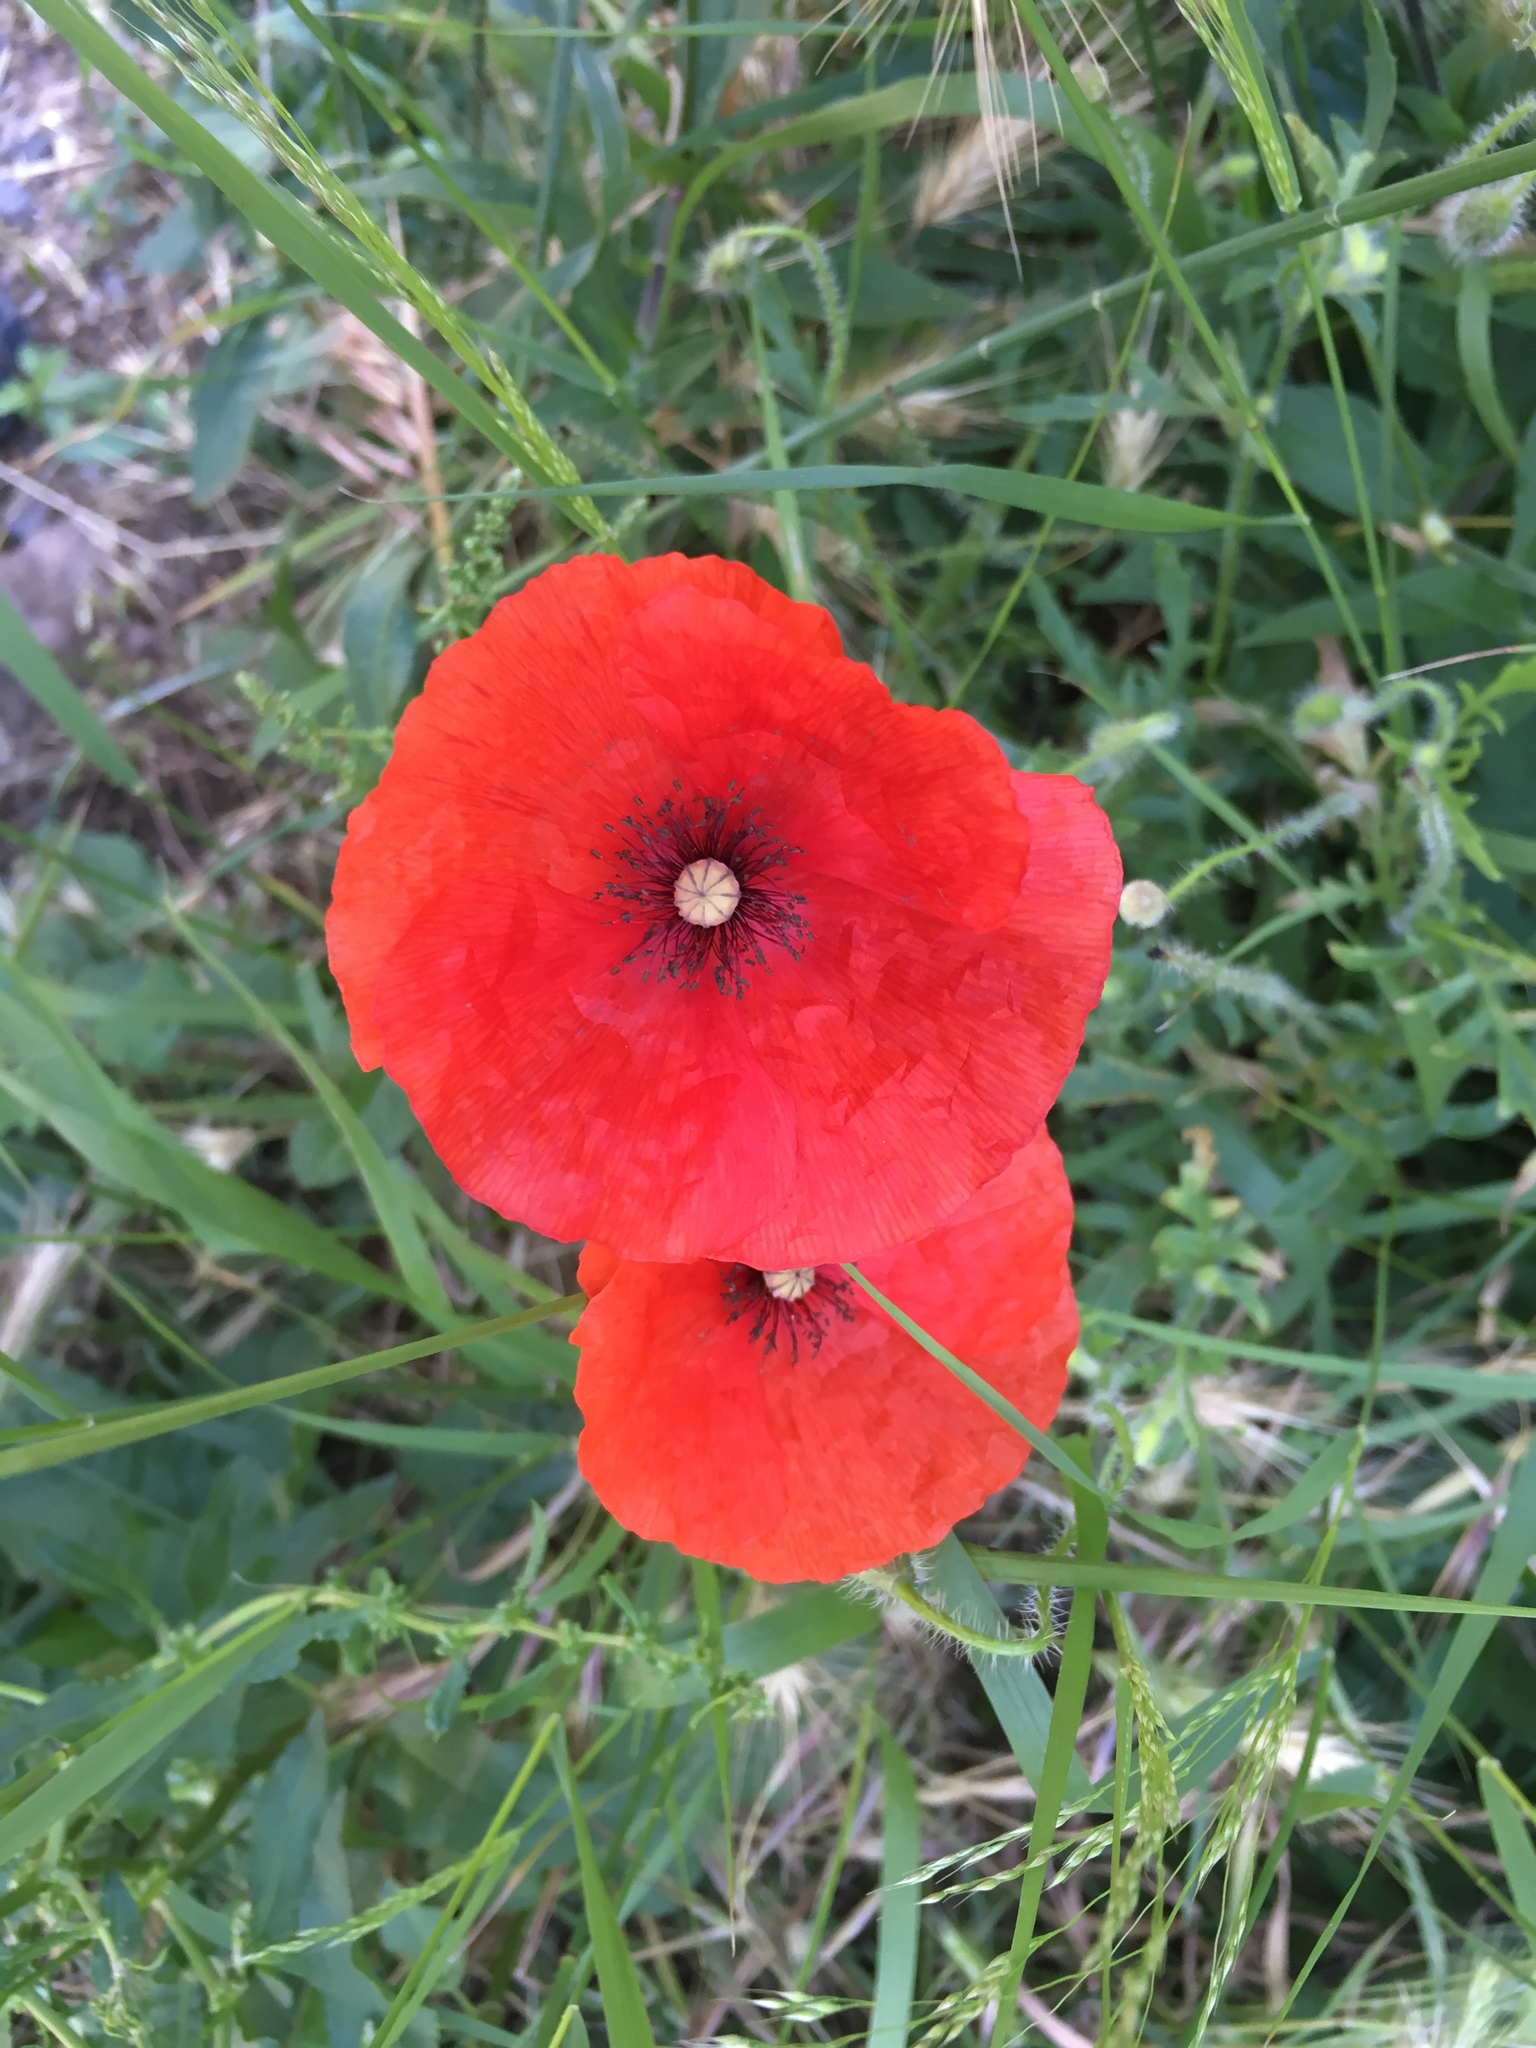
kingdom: Plantae
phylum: Tracheophyta
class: Magnoliopsida
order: Ranunculales
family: Papaveraceae
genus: Papaver
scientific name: Papaver rhoeas
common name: Corn poppy
